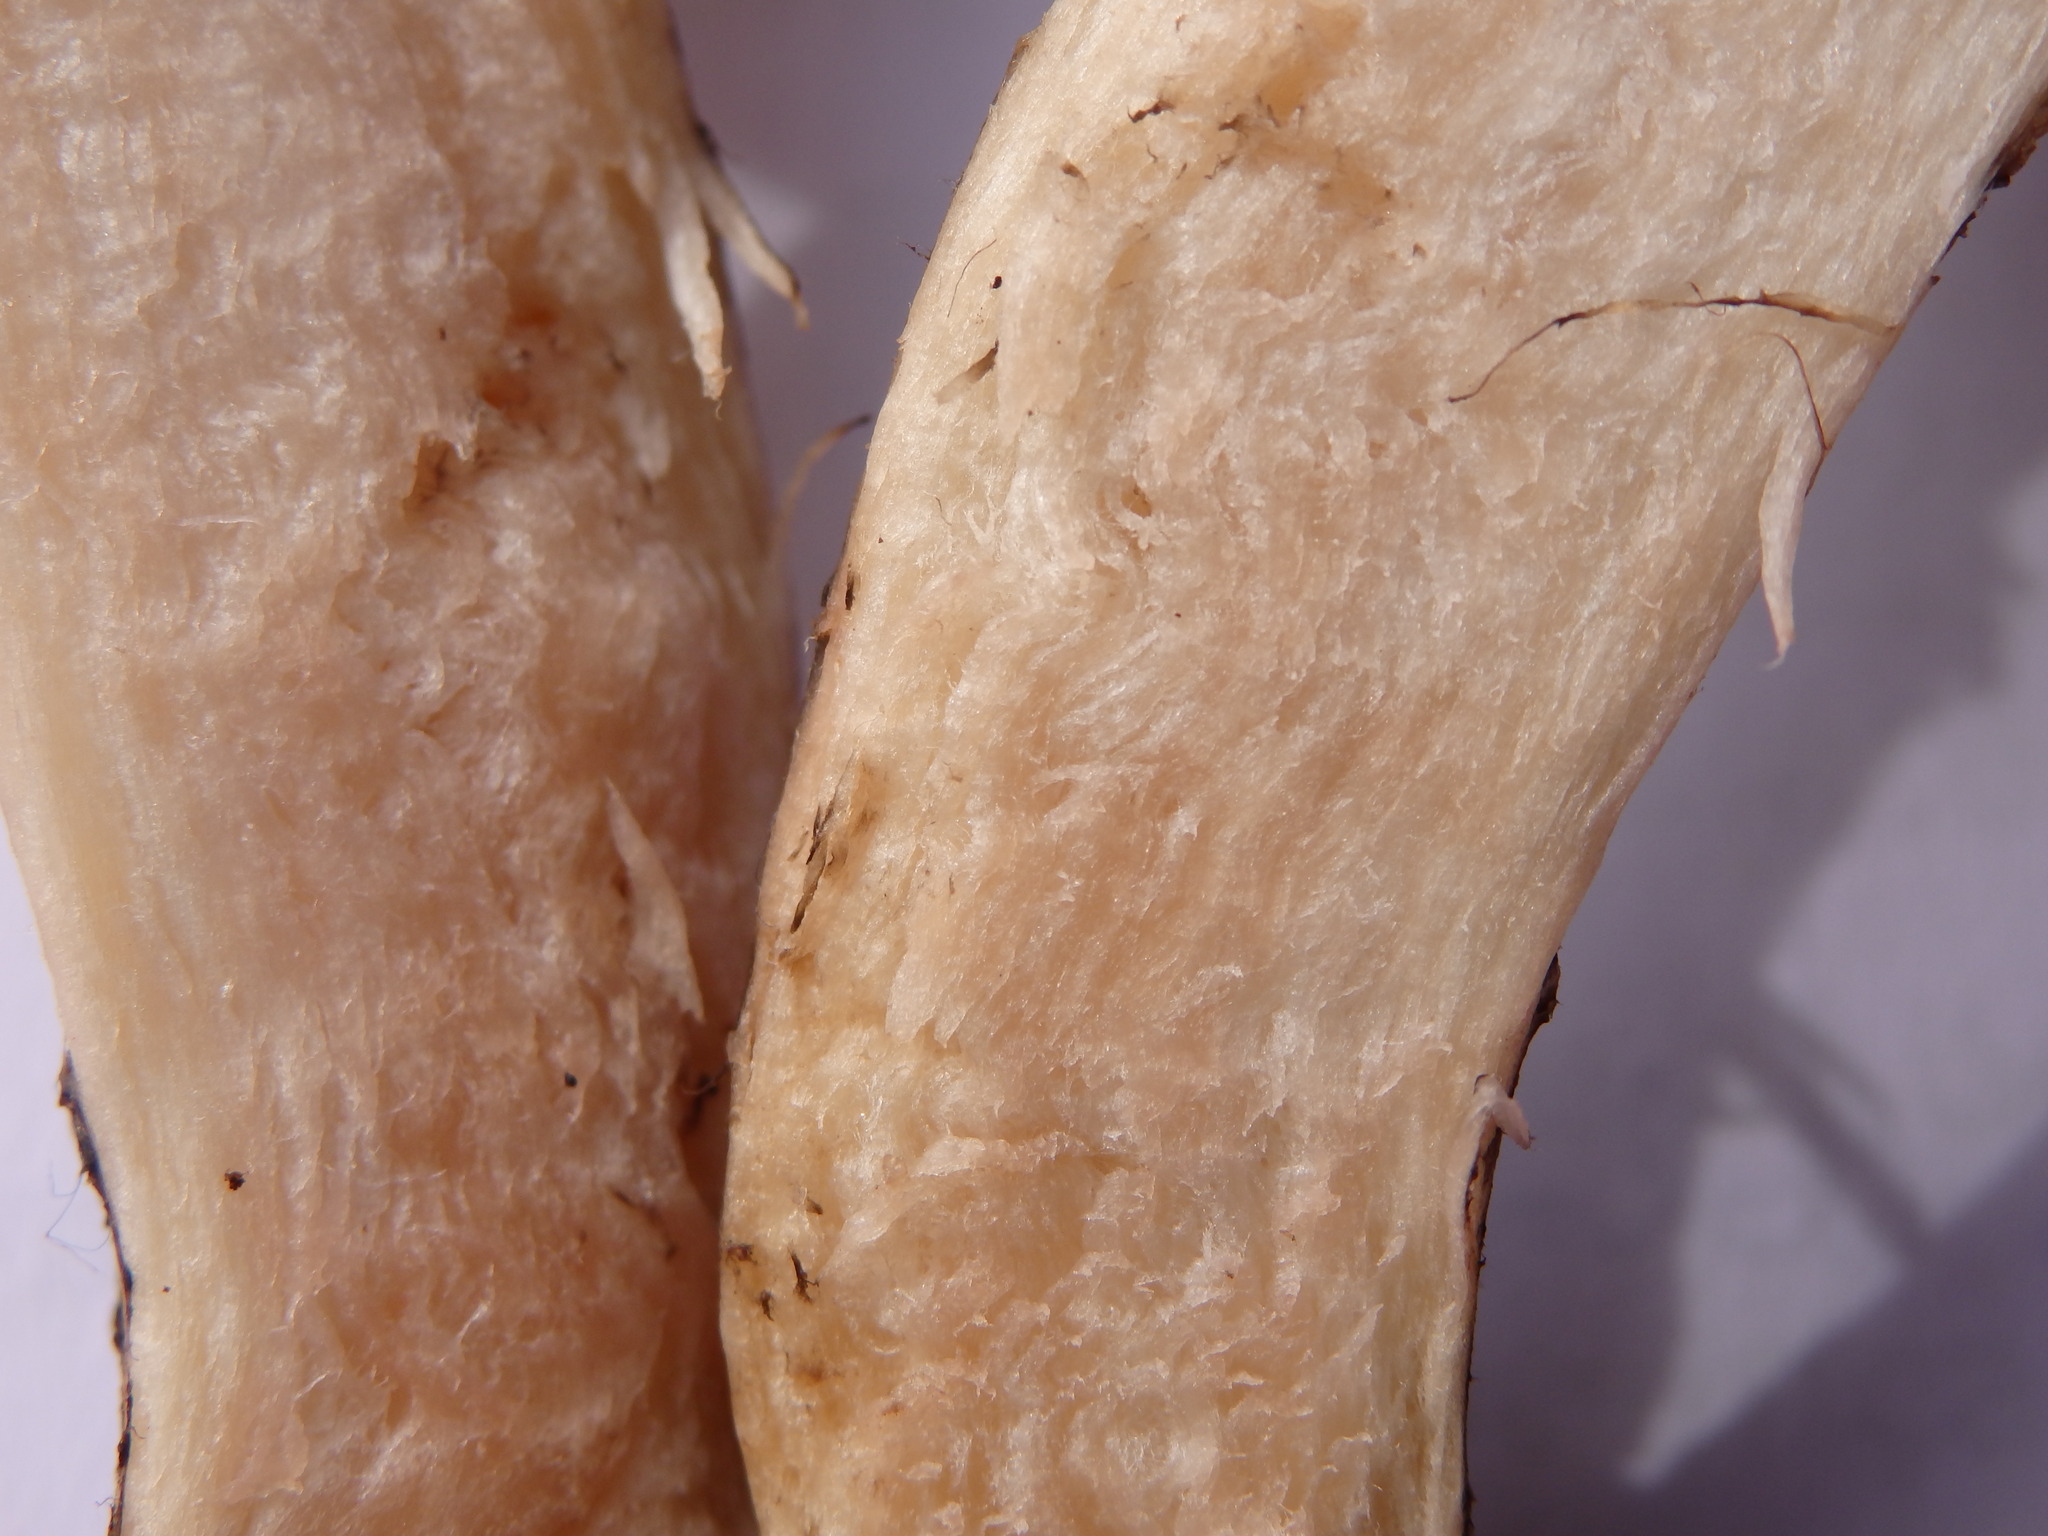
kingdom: Fungi
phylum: Basidiomycota
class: Agaricomycetes
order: Boletales
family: Gomphidiaceae
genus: Gomphidius
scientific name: Gomphidius roseus
